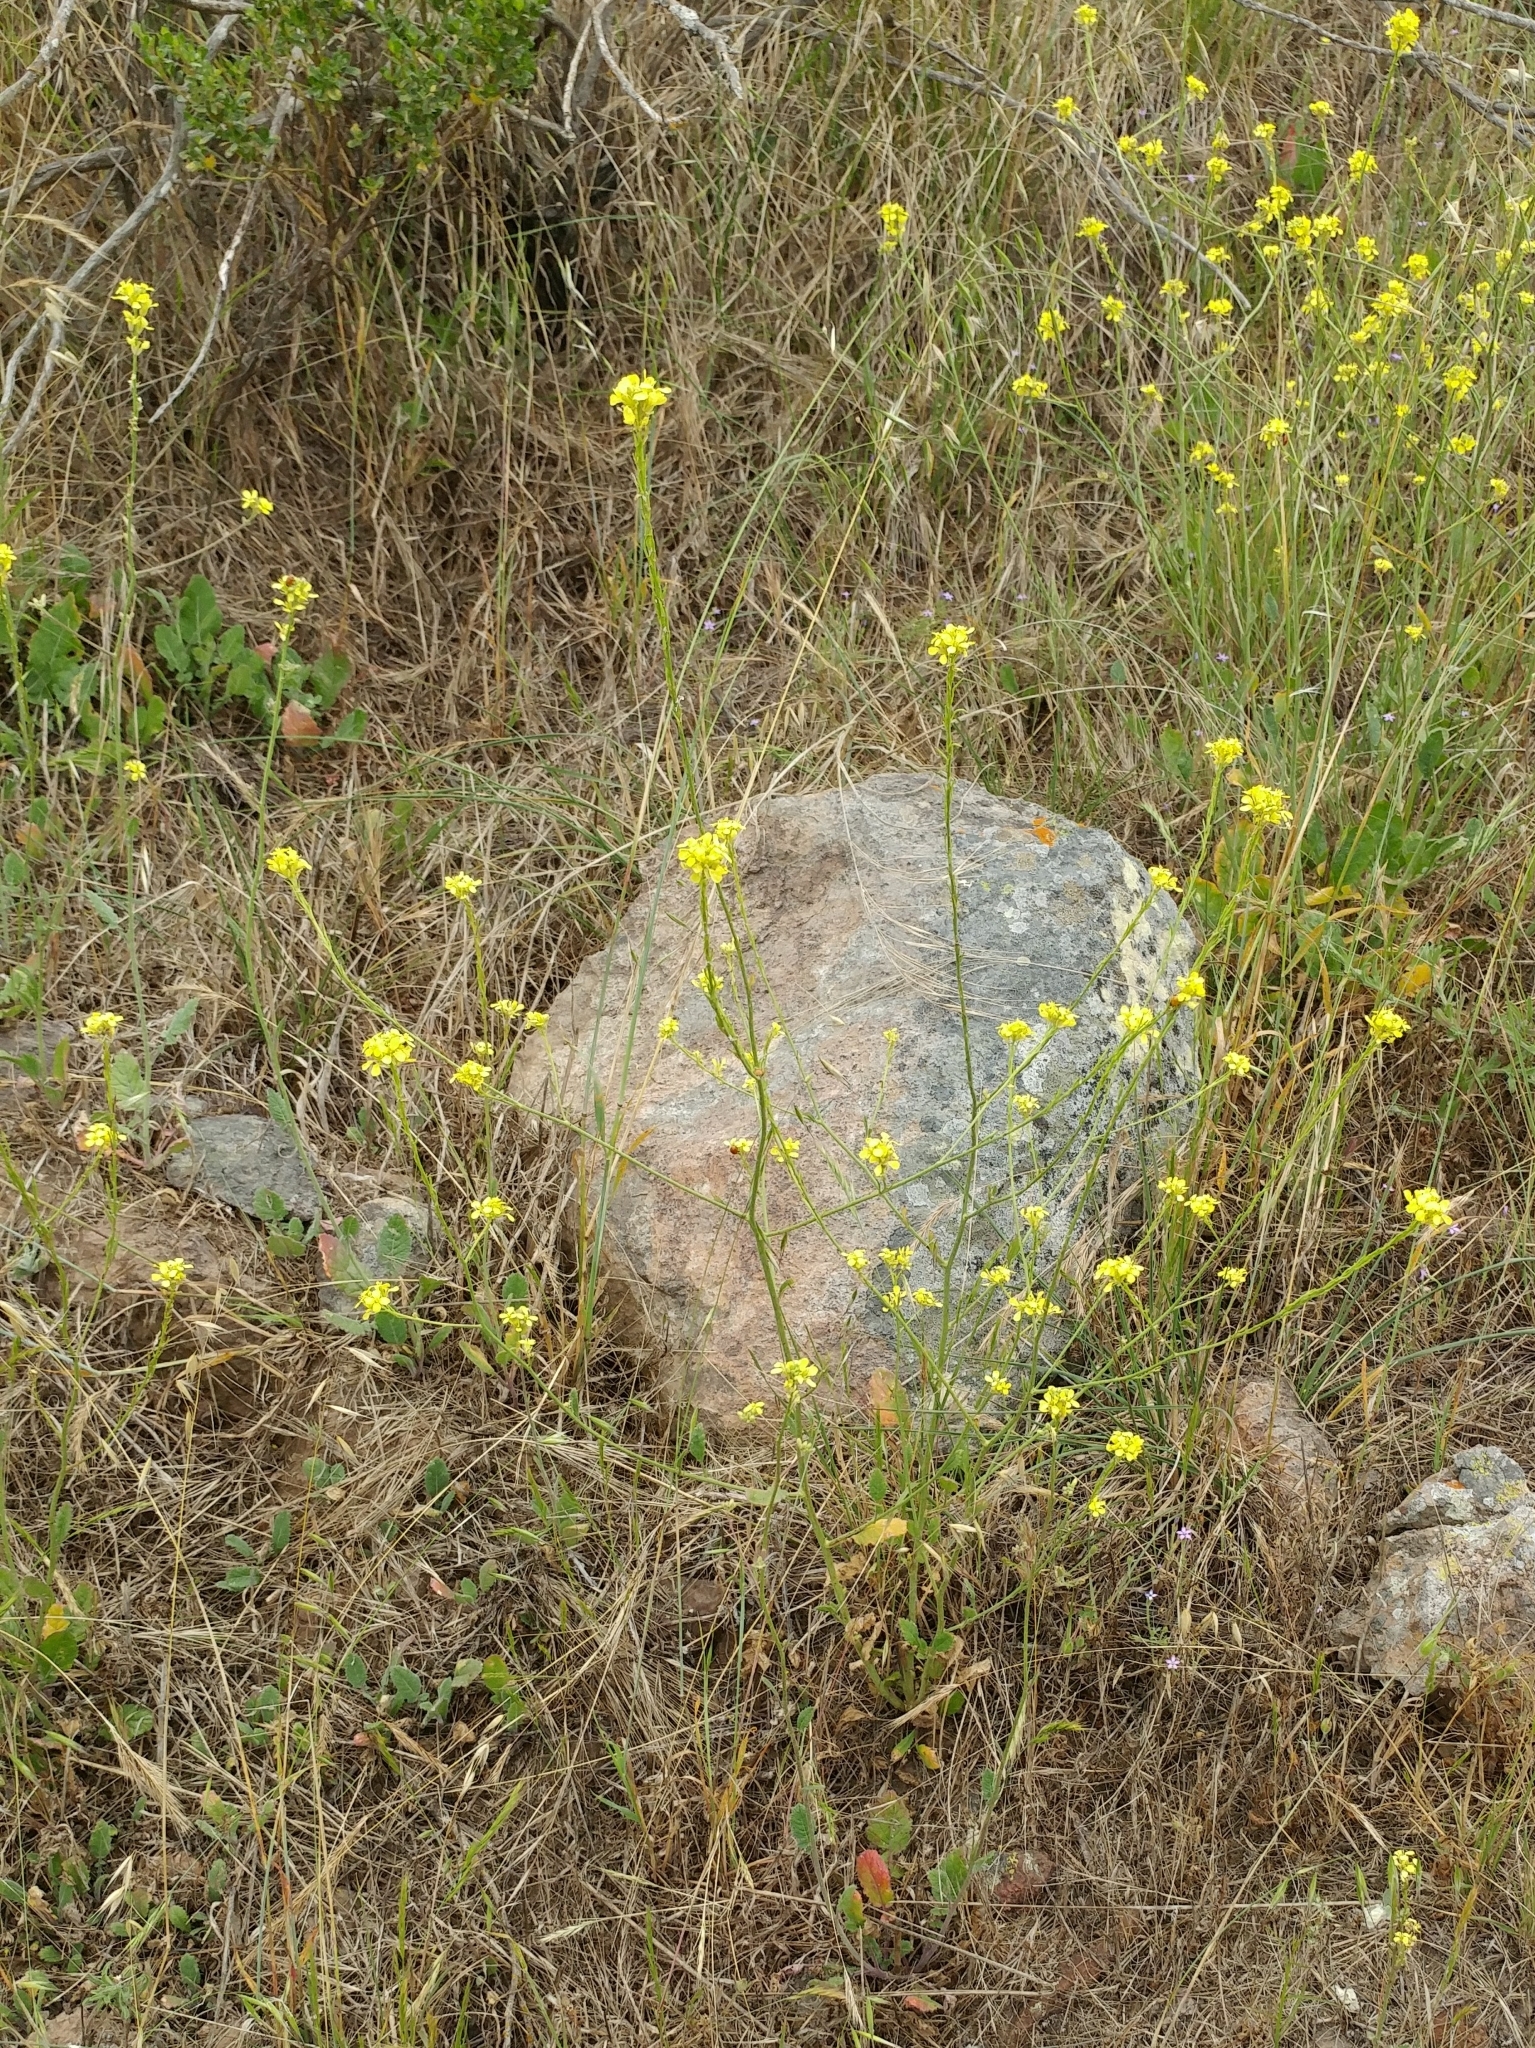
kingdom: Plantae
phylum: Tracheophyta
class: Magnoliopsida
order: Brassicales
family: Brassicaceae
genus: Hirschfeldia
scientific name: Hirschfeldia incana
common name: Hoary mustard
